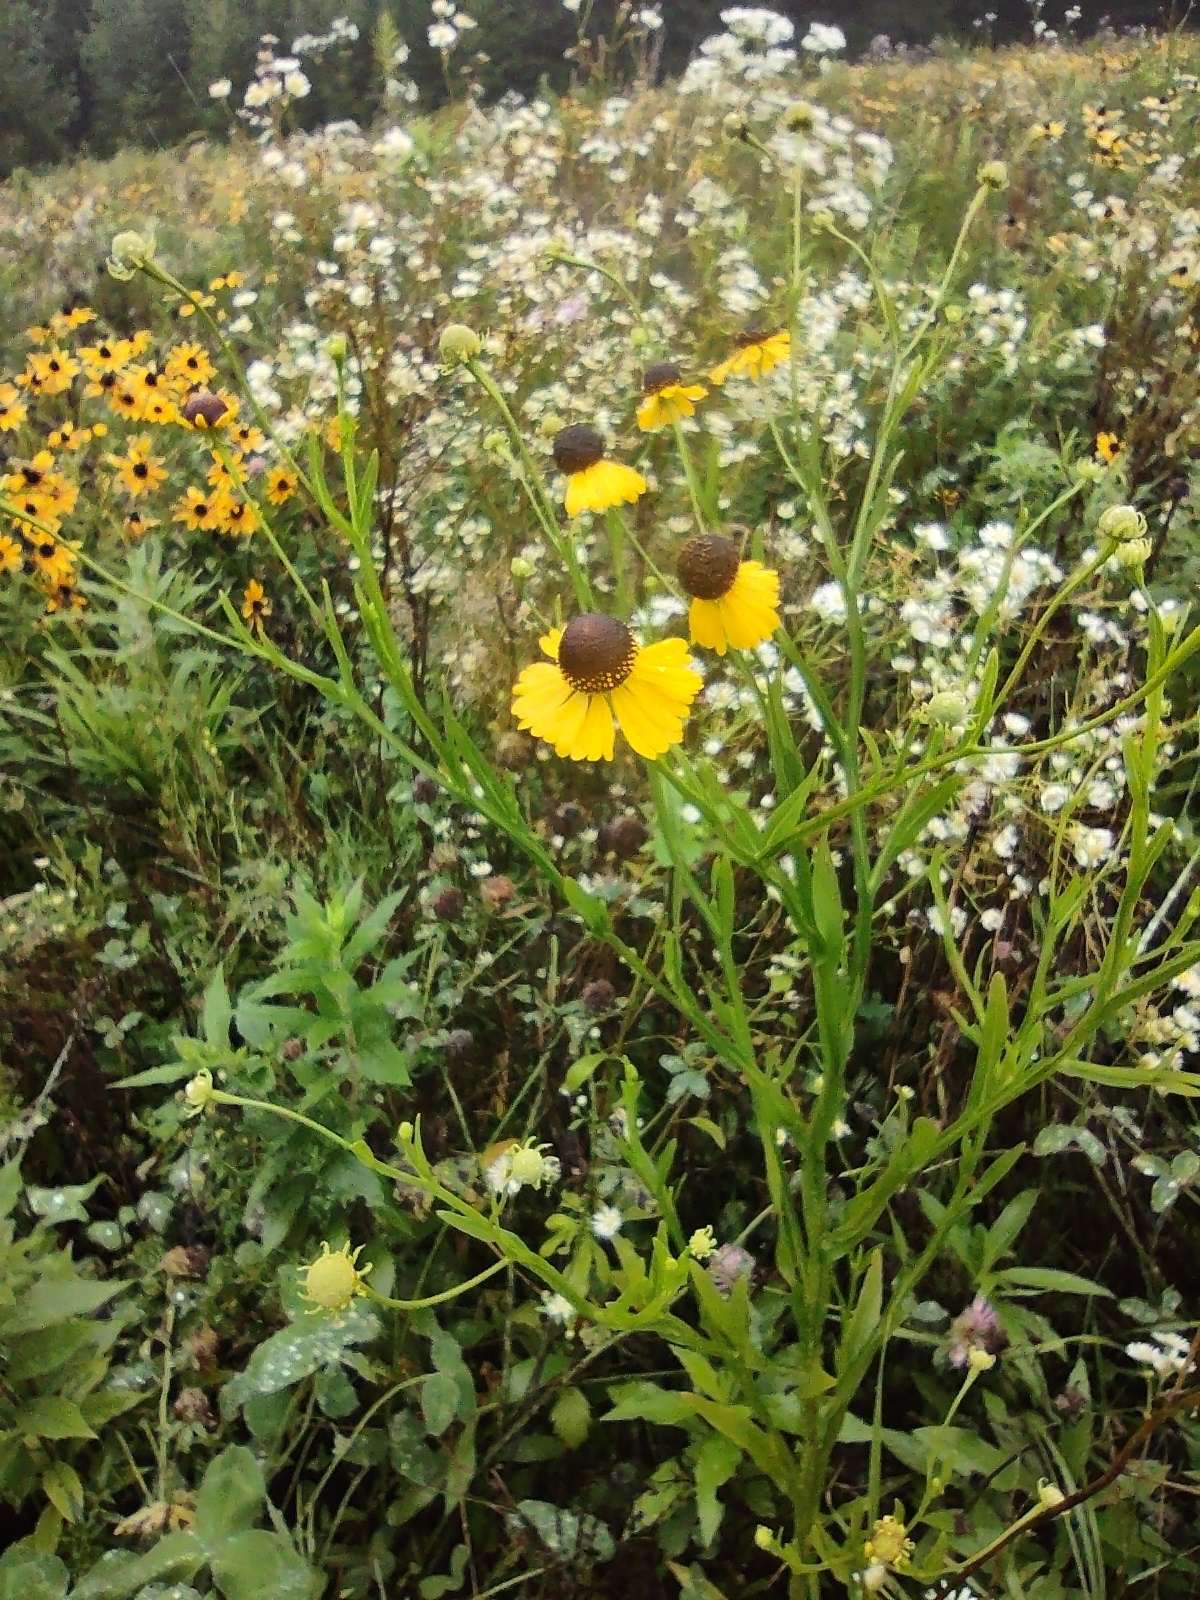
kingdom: Plantae
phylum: Tracheophyta
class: Magnoliopsida
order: Asterales
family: Asteraceae
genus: Helenium
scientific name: Helenium flexuosum
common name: Naked-flowered sneezeweed
